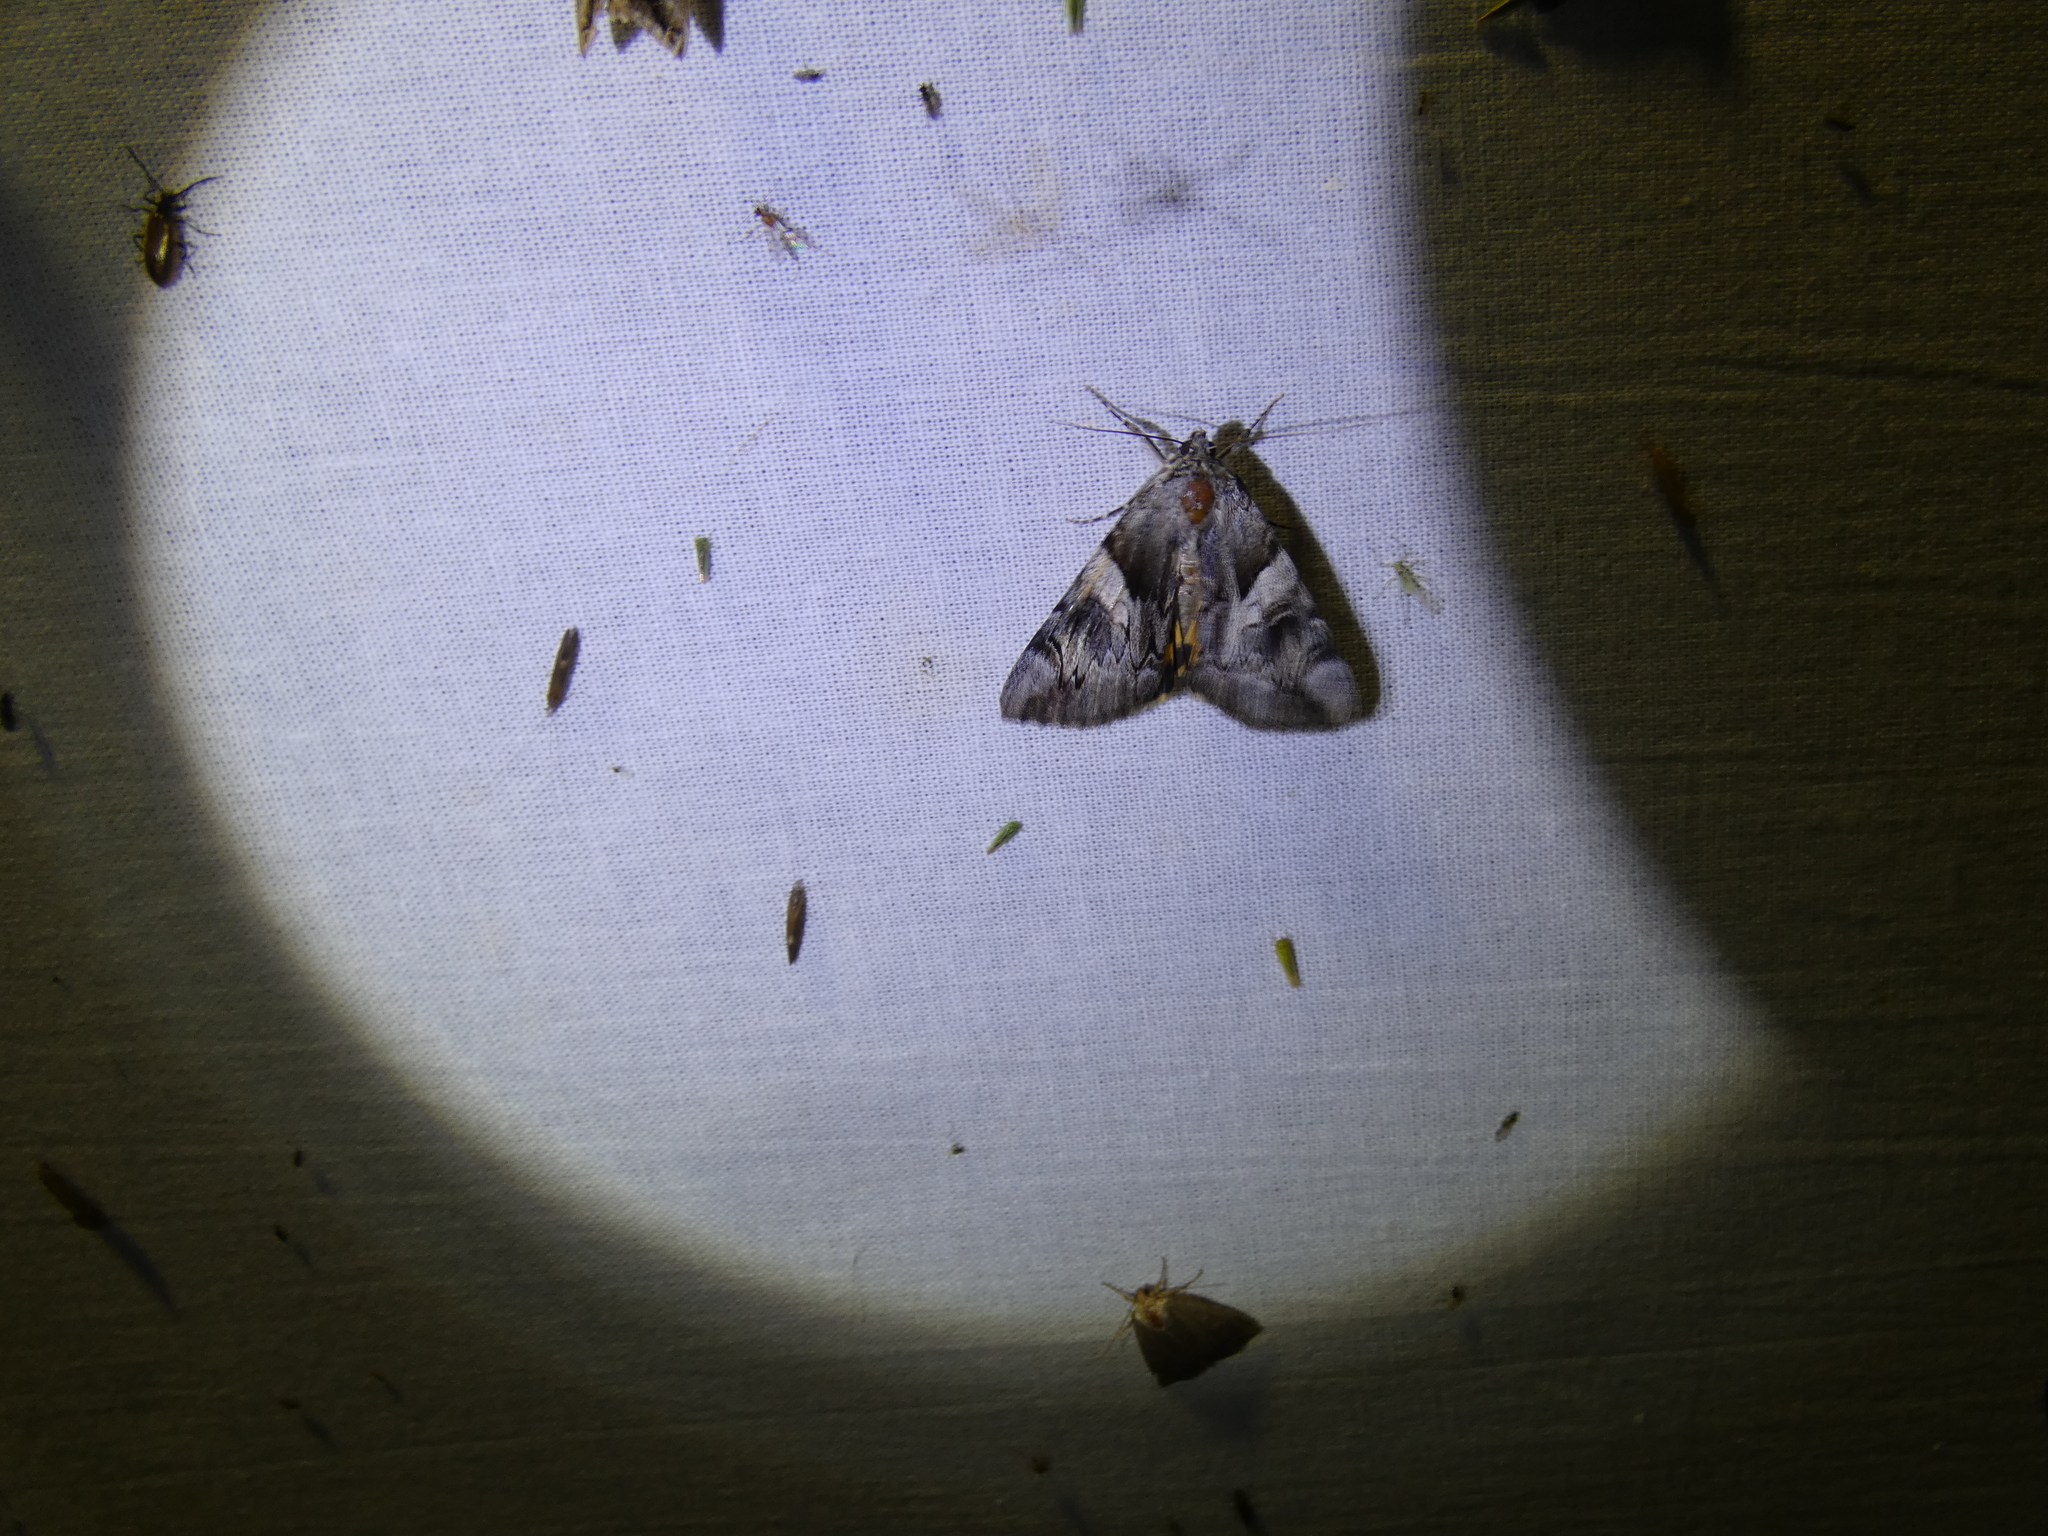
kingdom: Animalia
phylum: Arthropoda
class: Insecta
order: Lepidoptera
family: Erebidae
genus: Catocala
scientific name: Catocala fulminea
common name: Yellow bands underwing
